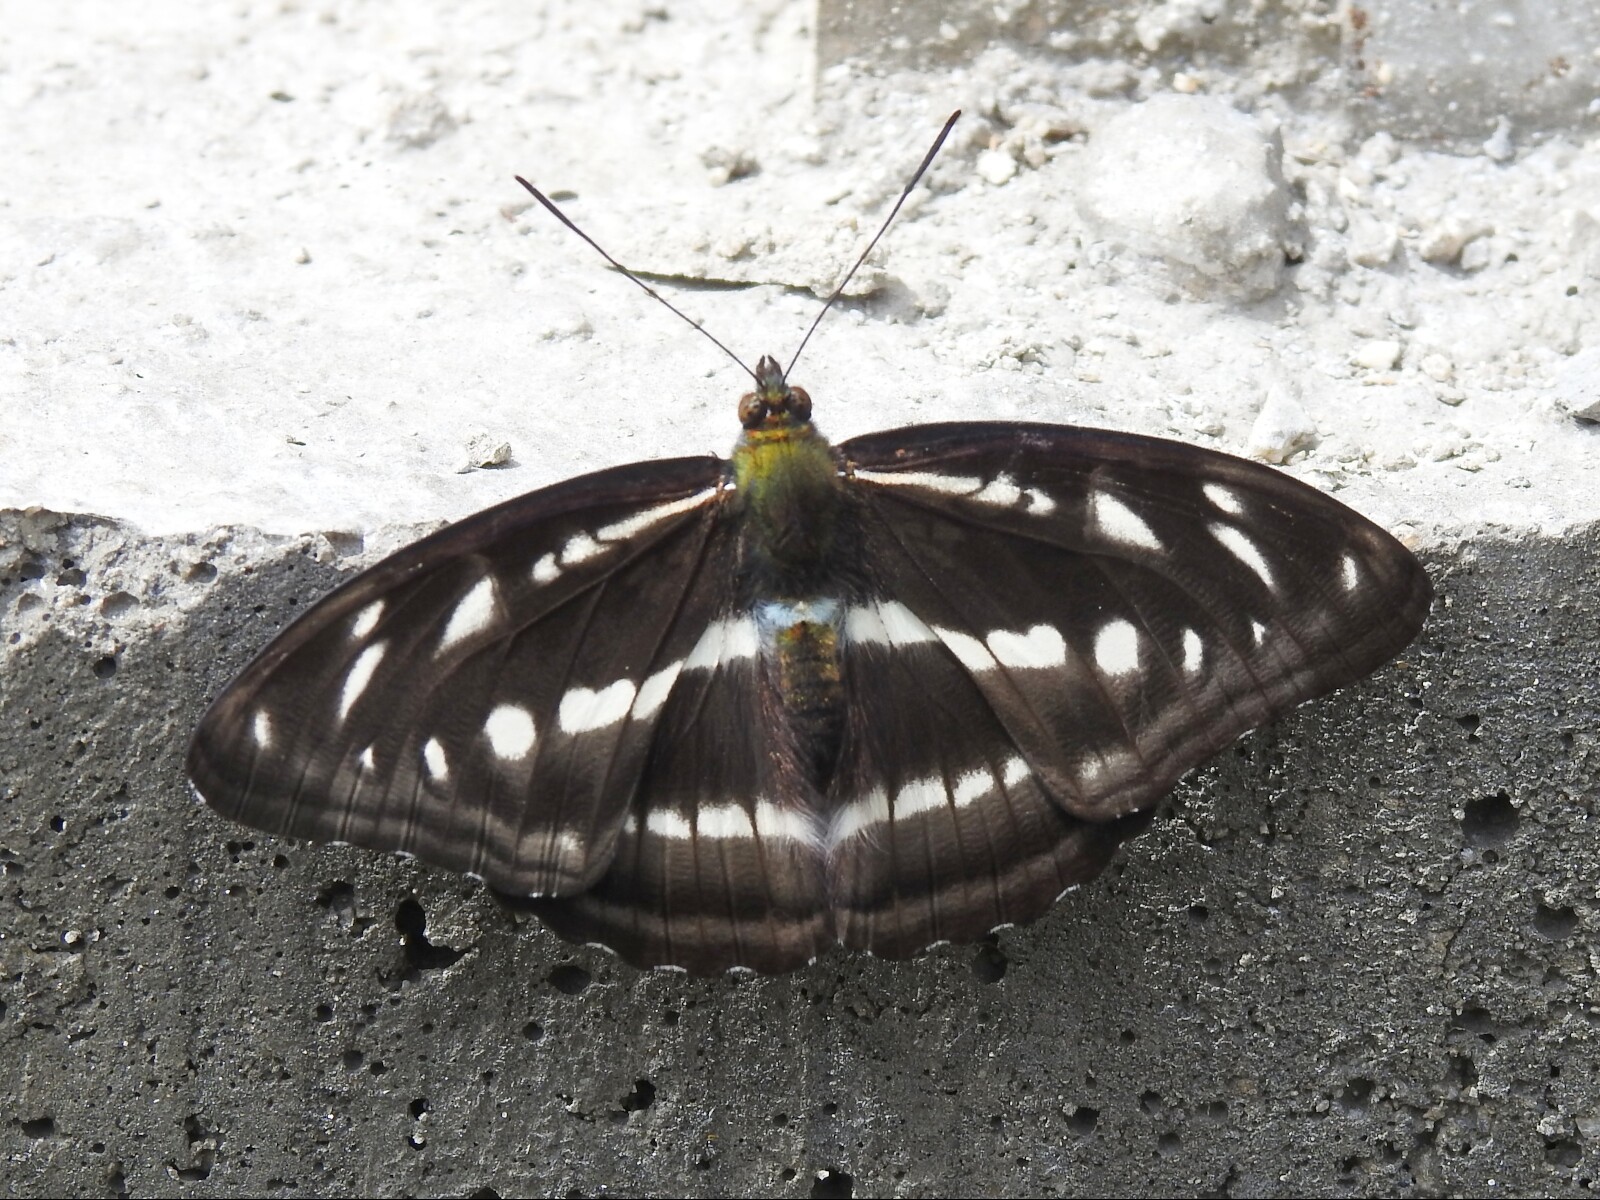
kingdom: Animalia
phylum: Arthropoda
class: Insecta
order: Lepidoptera
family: Nymphalidae
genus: Parathyma
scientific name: Parathyma opalina
